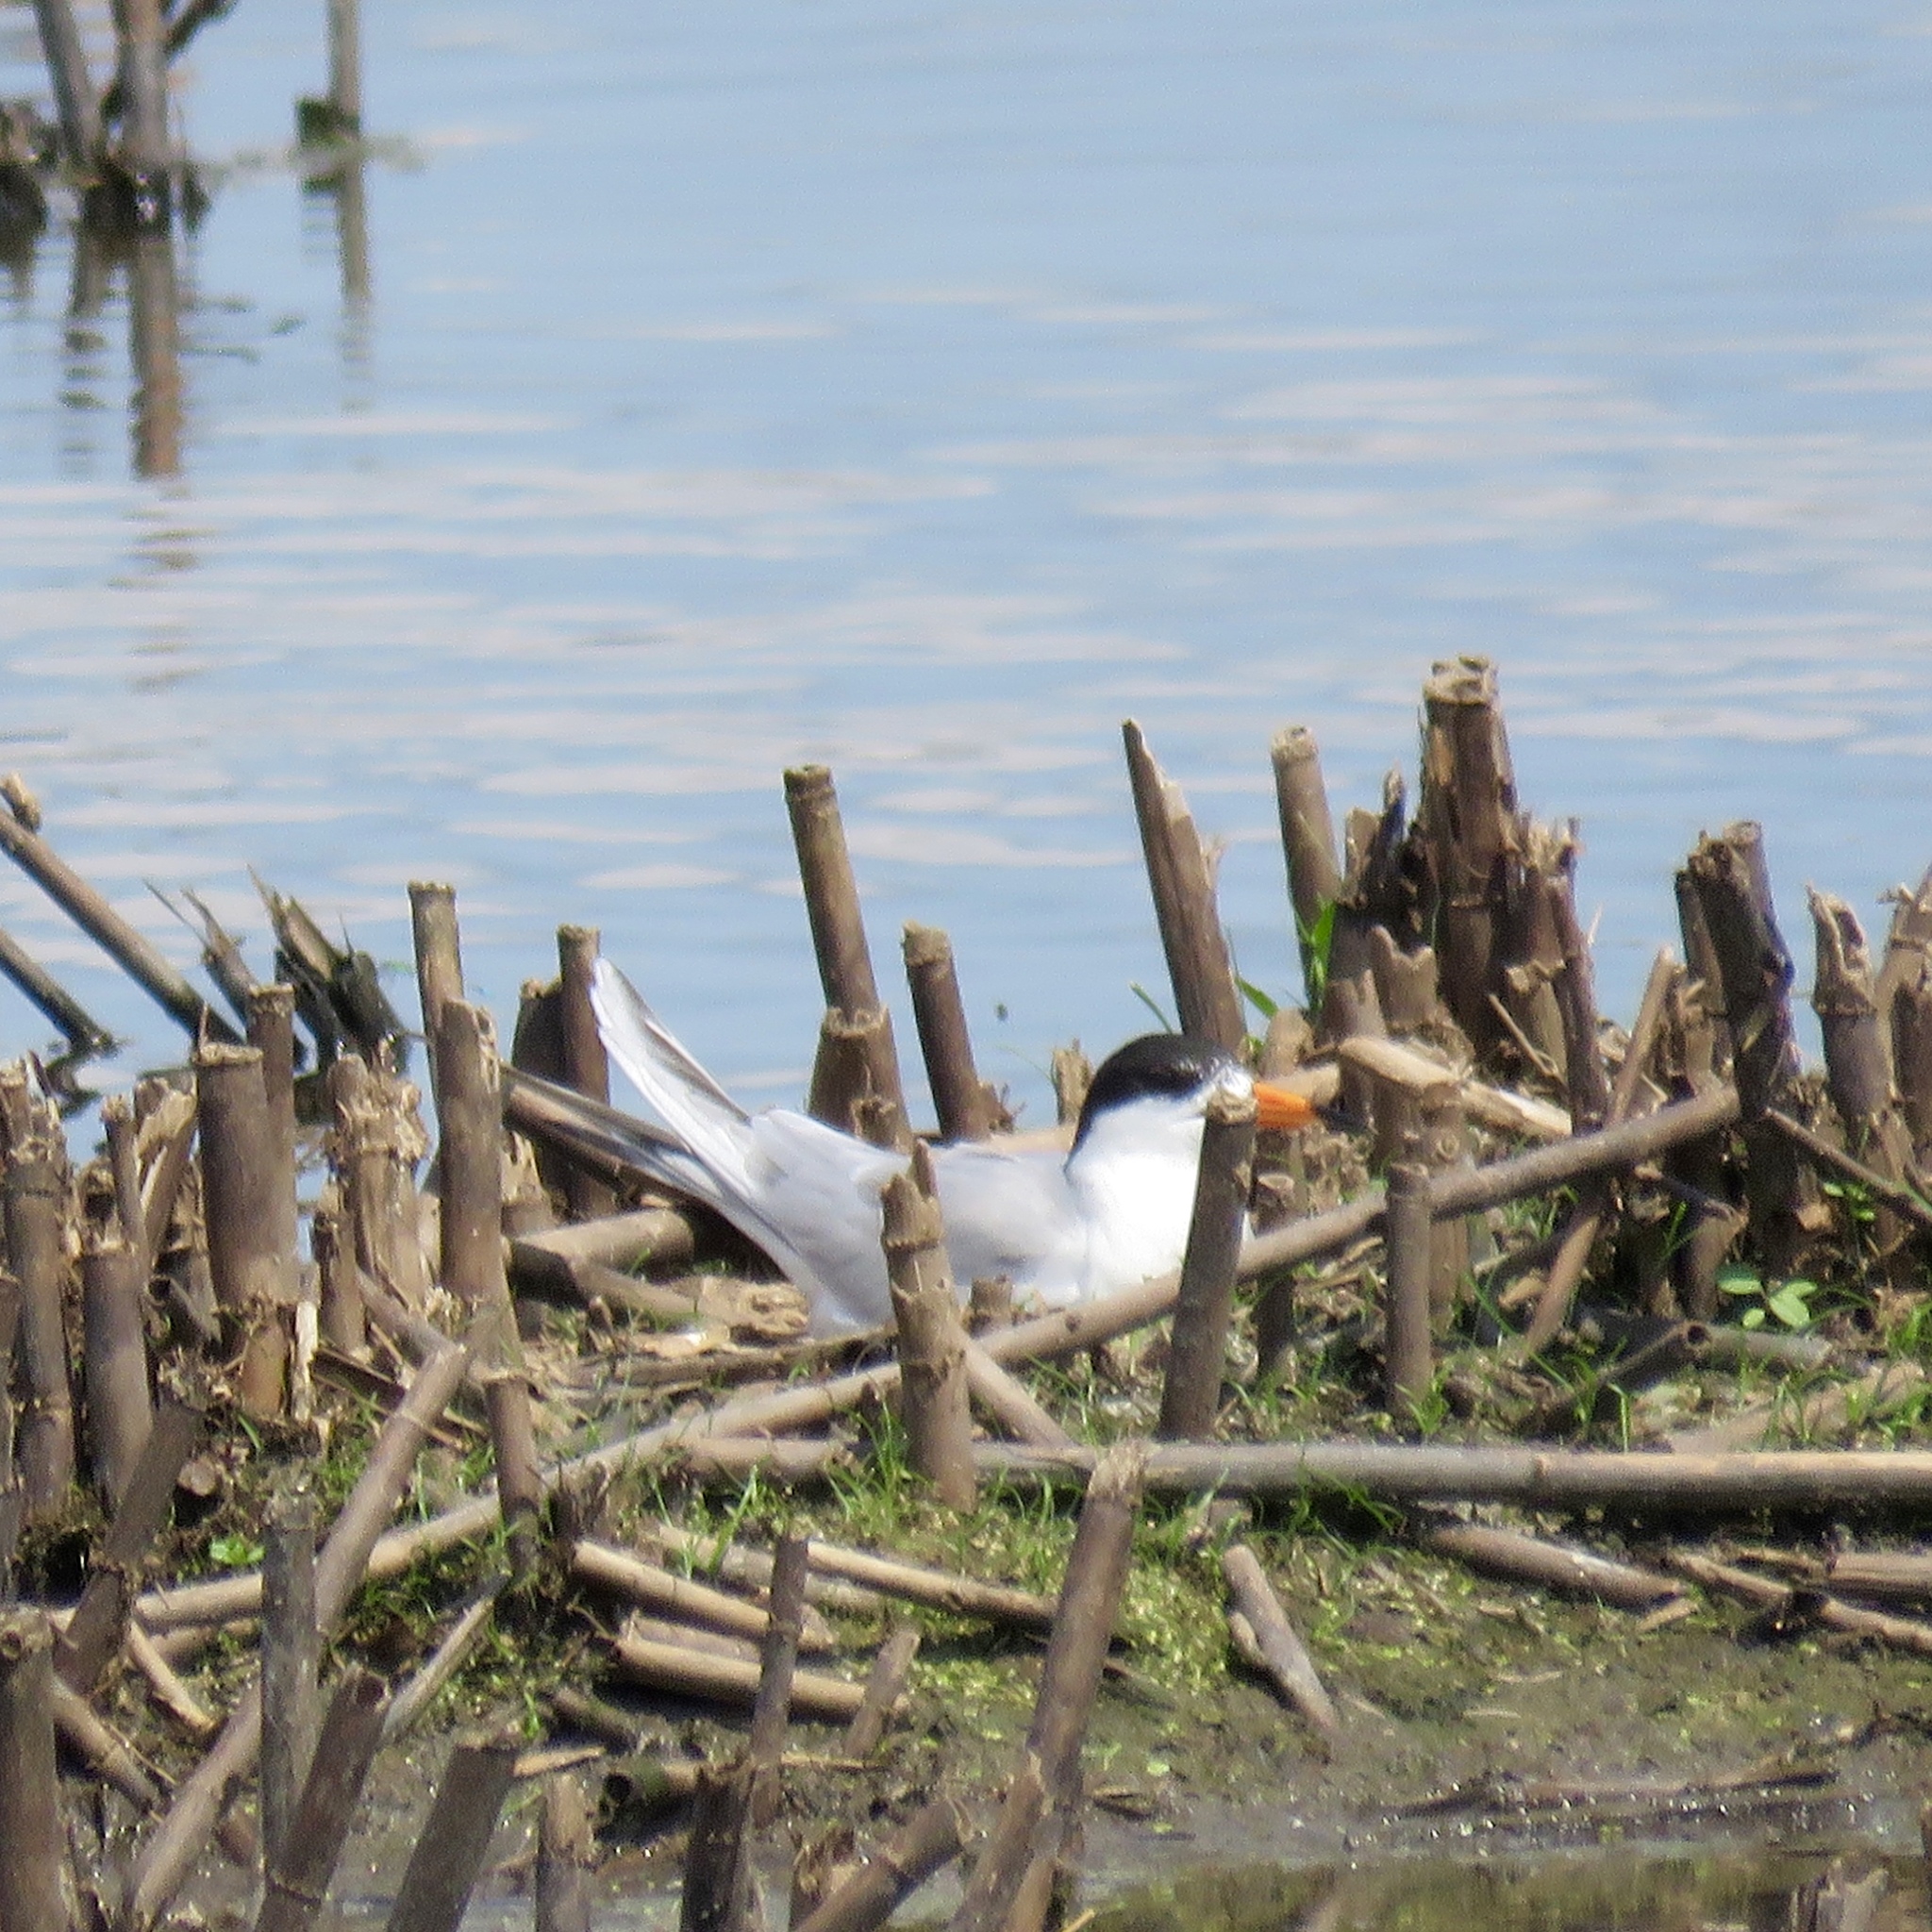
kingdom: Animalia
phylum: Chordata
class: Aves
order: Charadriiformes
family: Laridae
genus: Sterna
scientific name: Sterna forsteri
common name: Forster's tern
